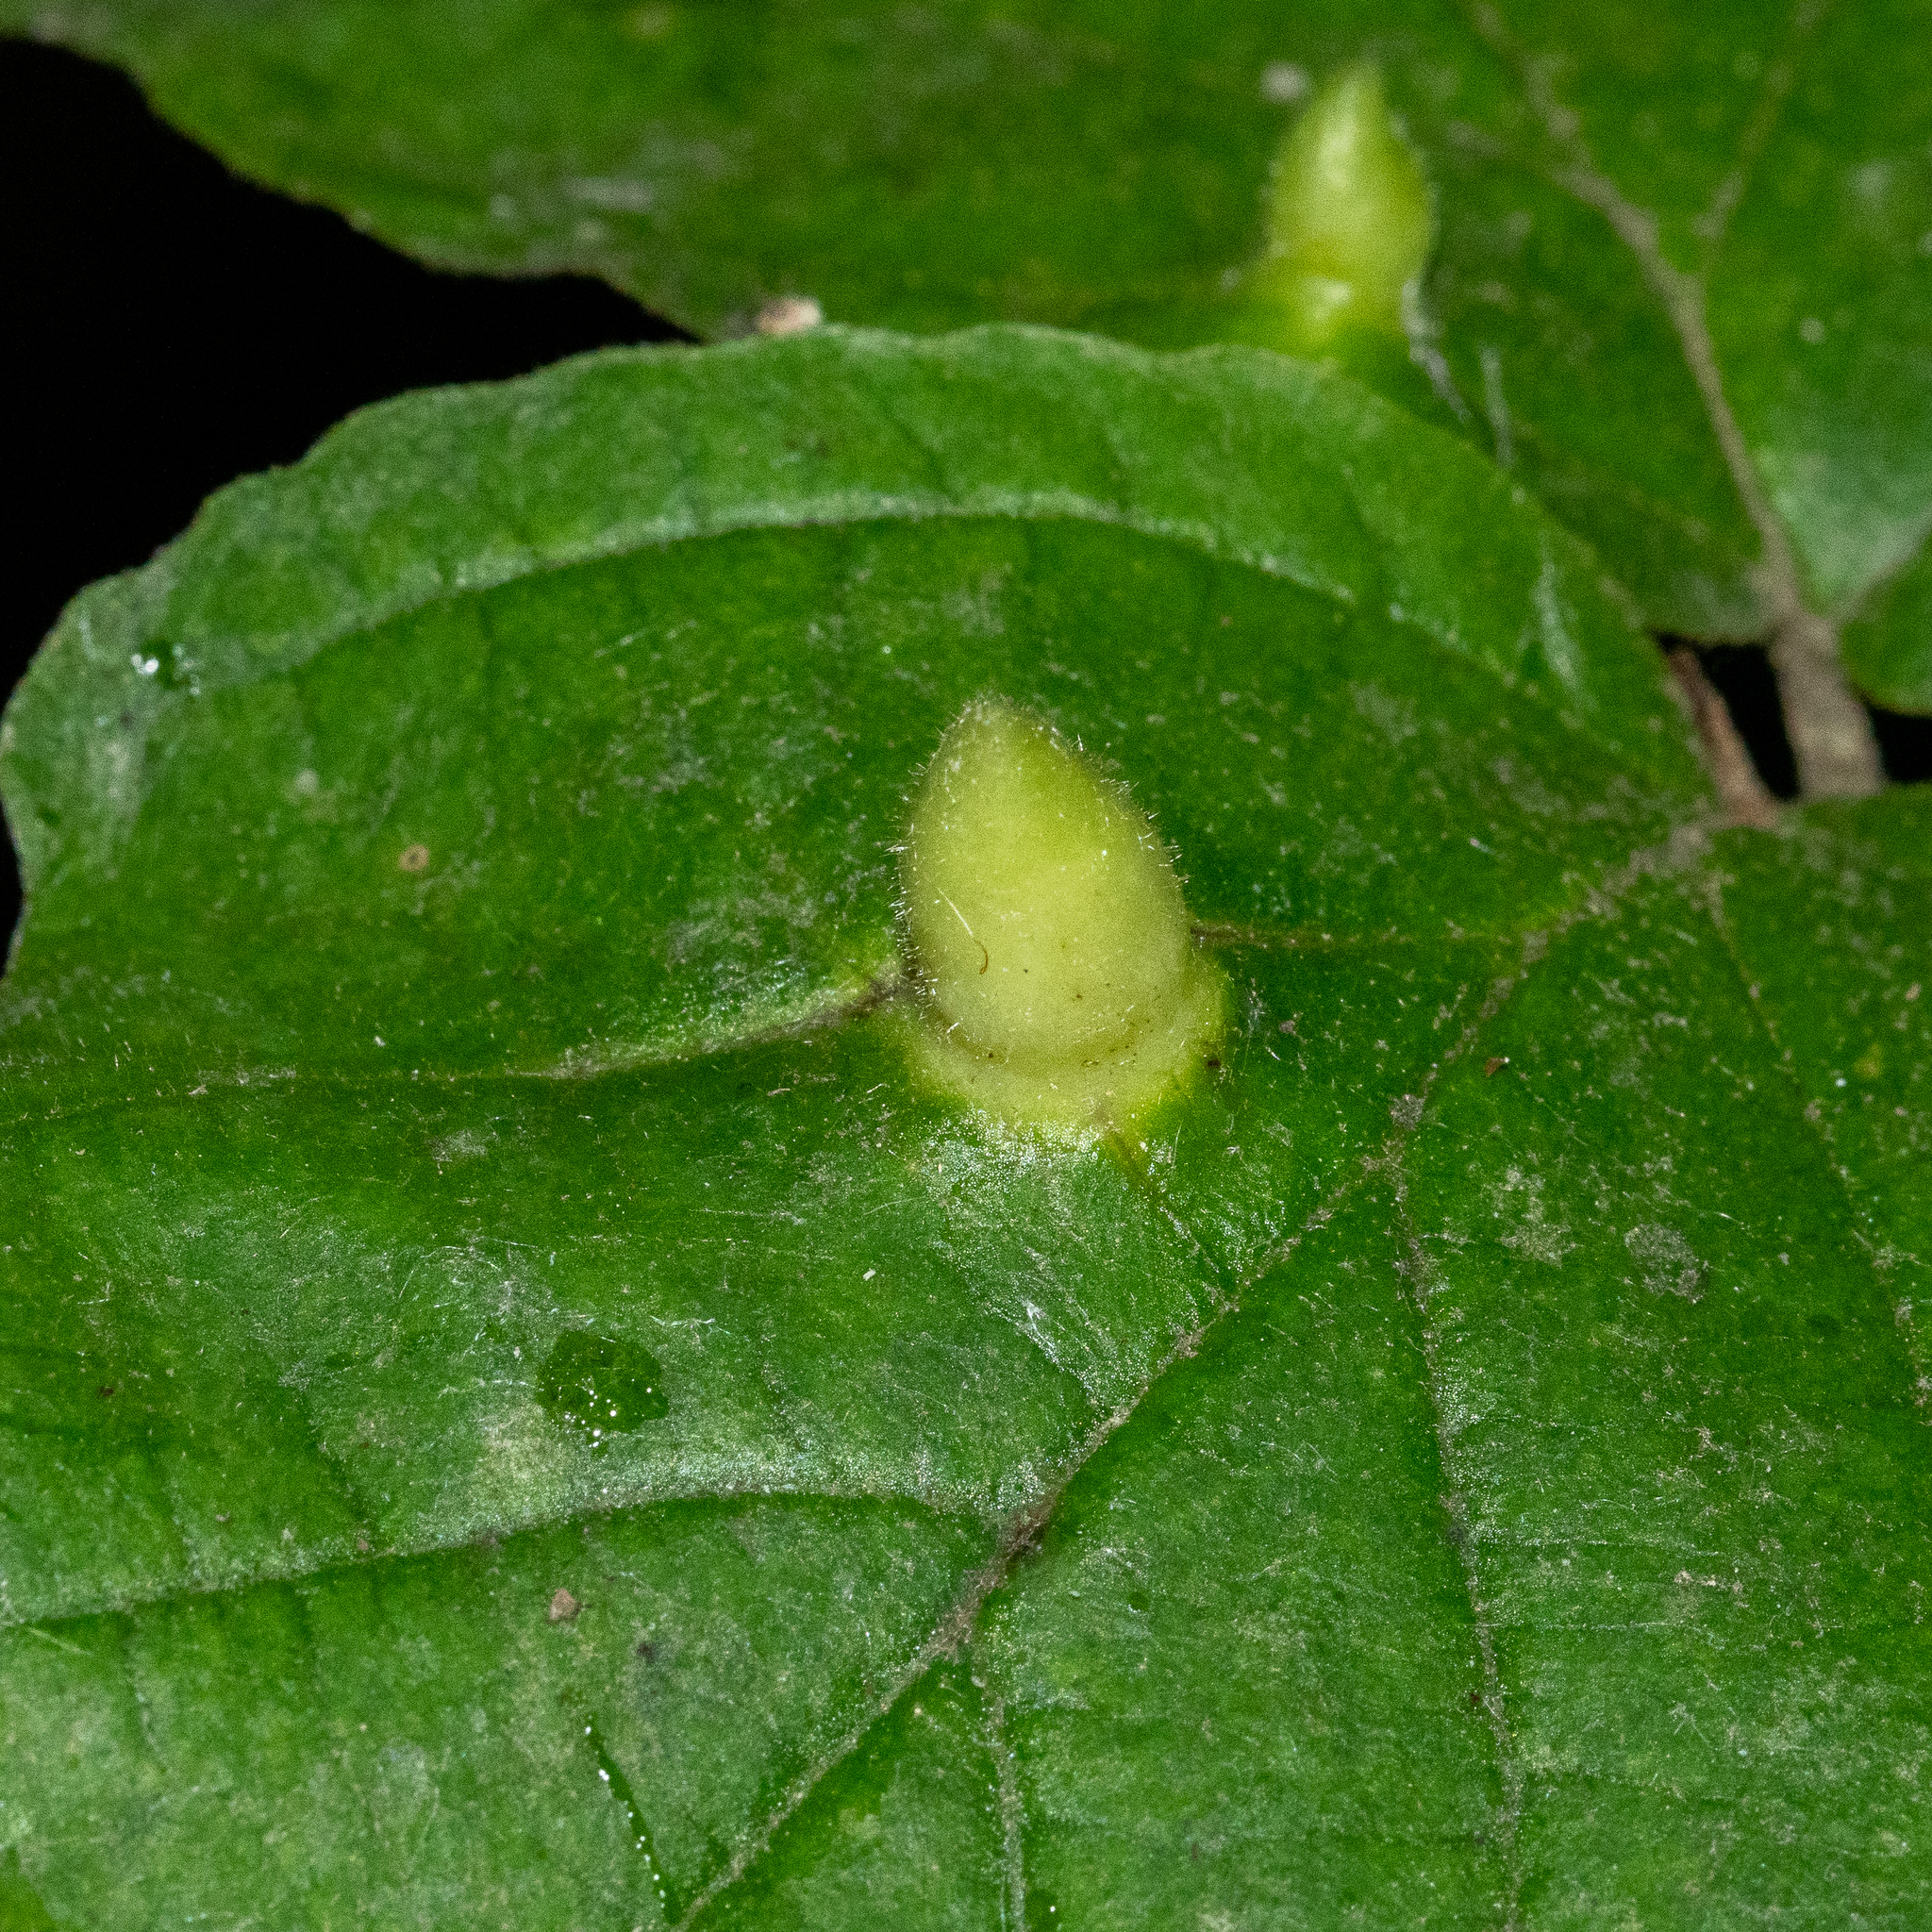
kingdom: Animalia
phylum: Arthropoda
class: Insecta
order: Hemiptera
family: Aphididae
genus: Hormaphis
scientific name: Hormaphis hamamelidis
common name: Witch-hazel cone gall aphid
